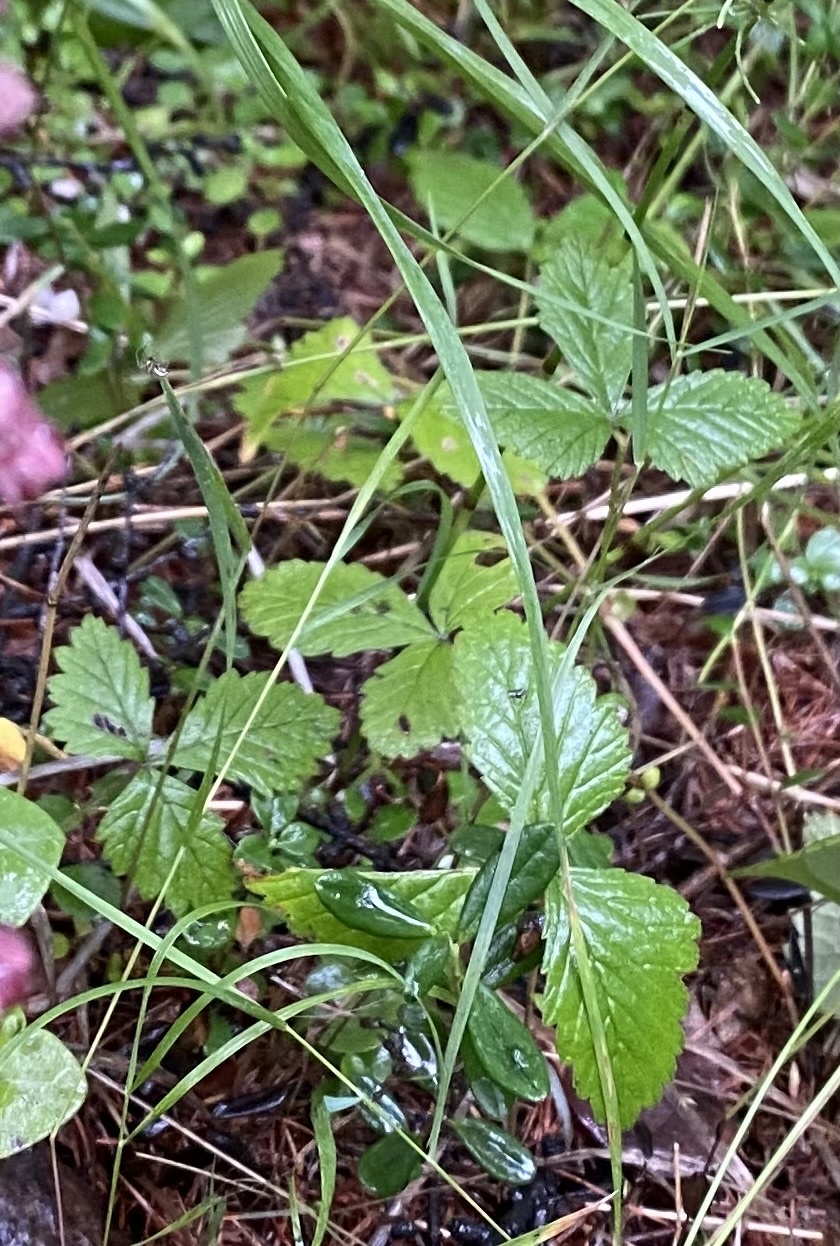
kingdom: Plantae
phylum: Tracheophyta
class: Magnoliopsida
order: Rosales
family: Rosaceae
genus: Rubus
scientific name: Rubus arcticus
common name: Arctic bramble
